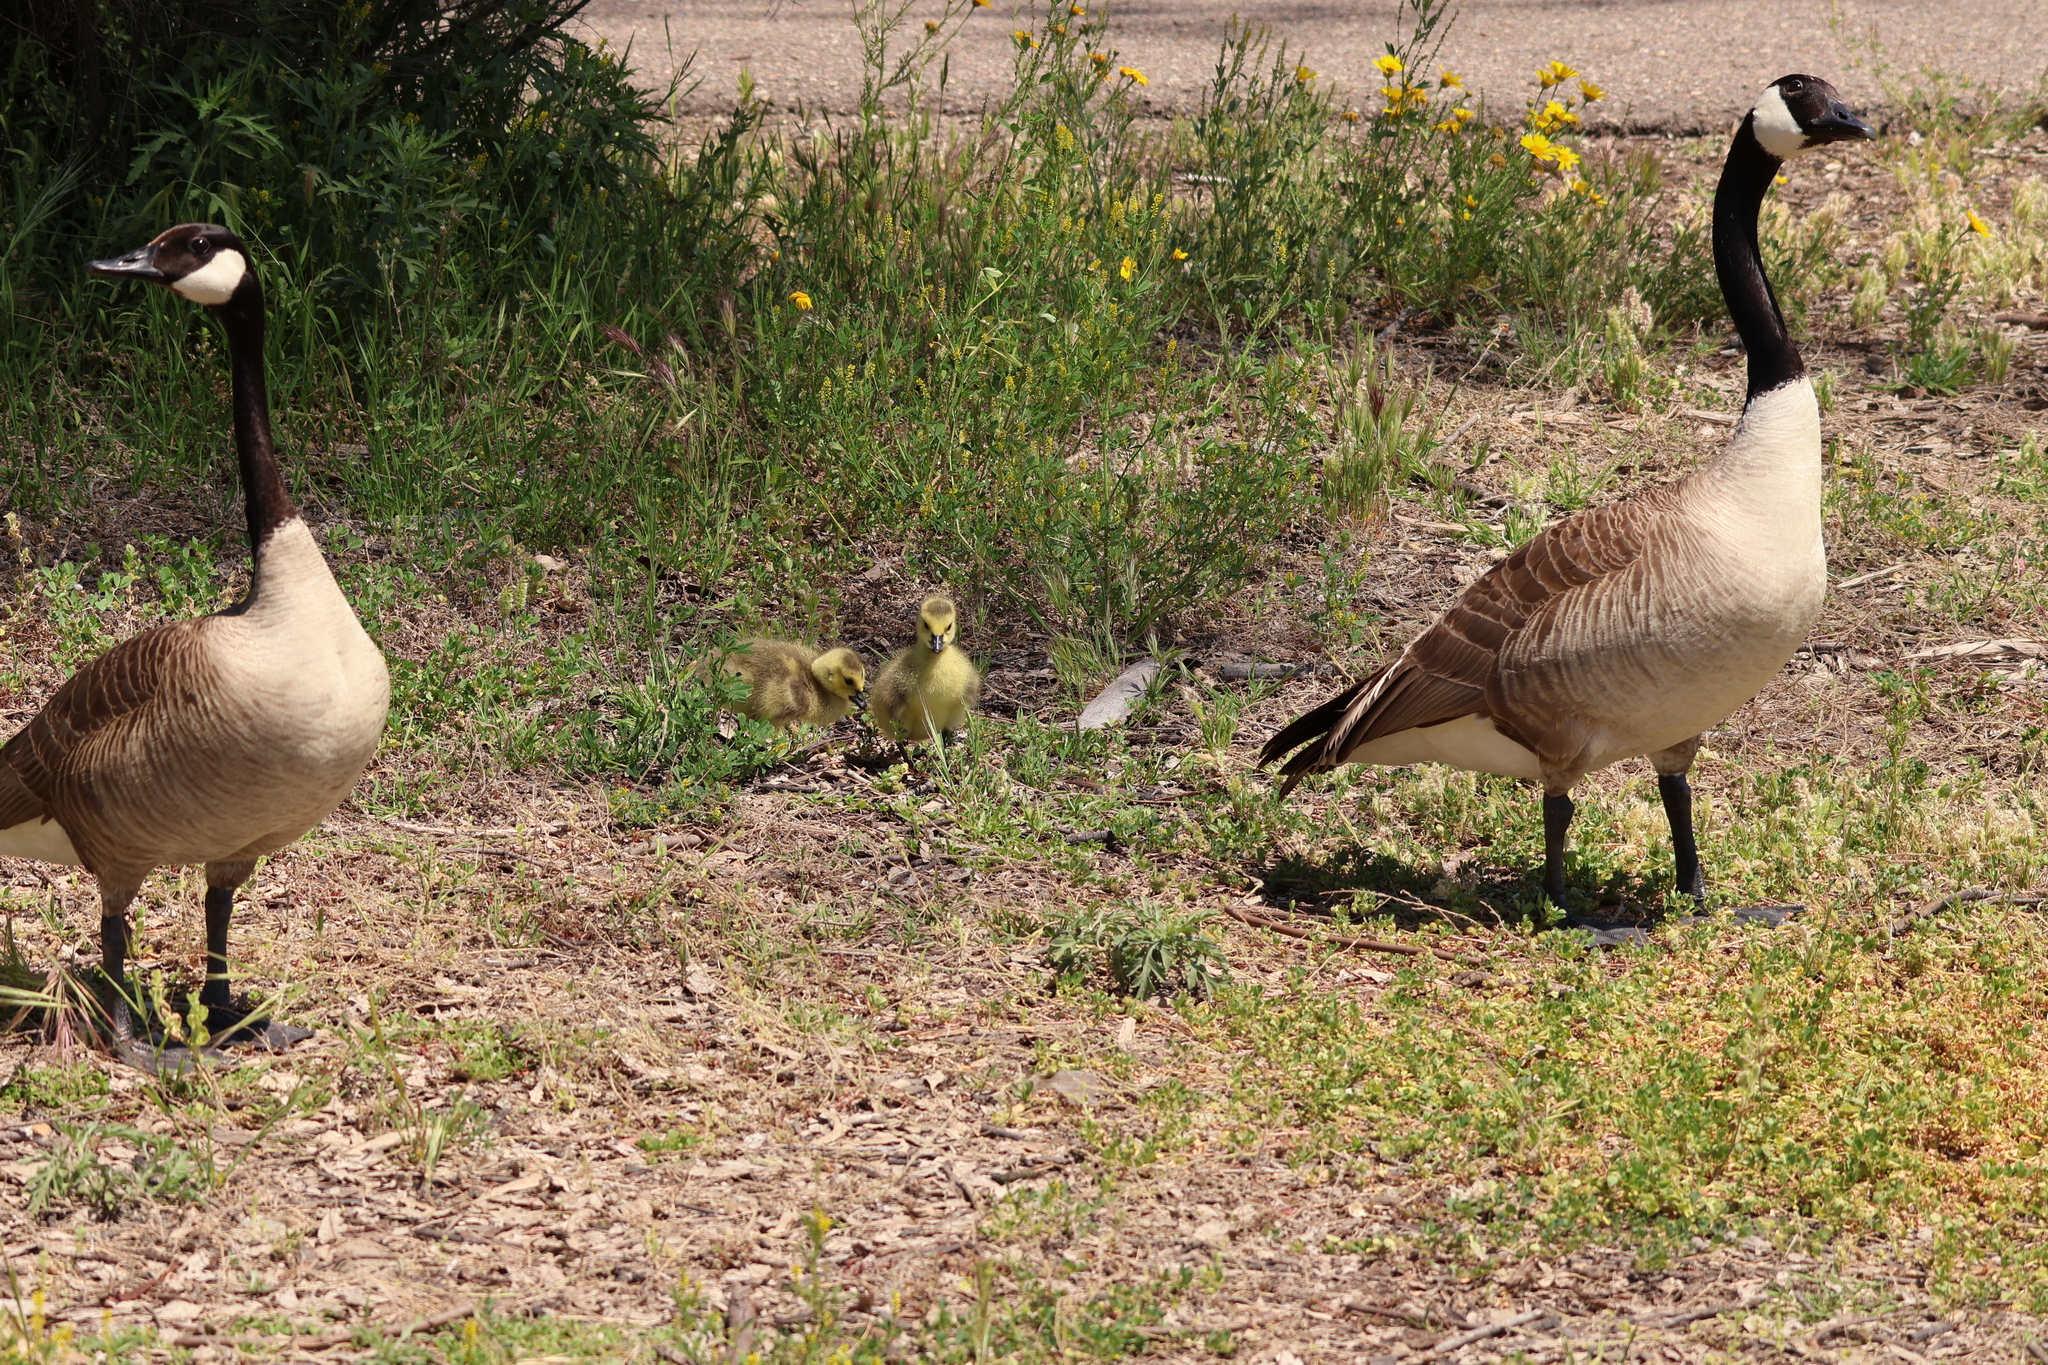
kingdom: Animalia
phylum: Chordata
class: Aves
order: Anseriformes
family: Anatidae
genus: Branta
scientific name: Branta canadensis
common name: Canada goose
